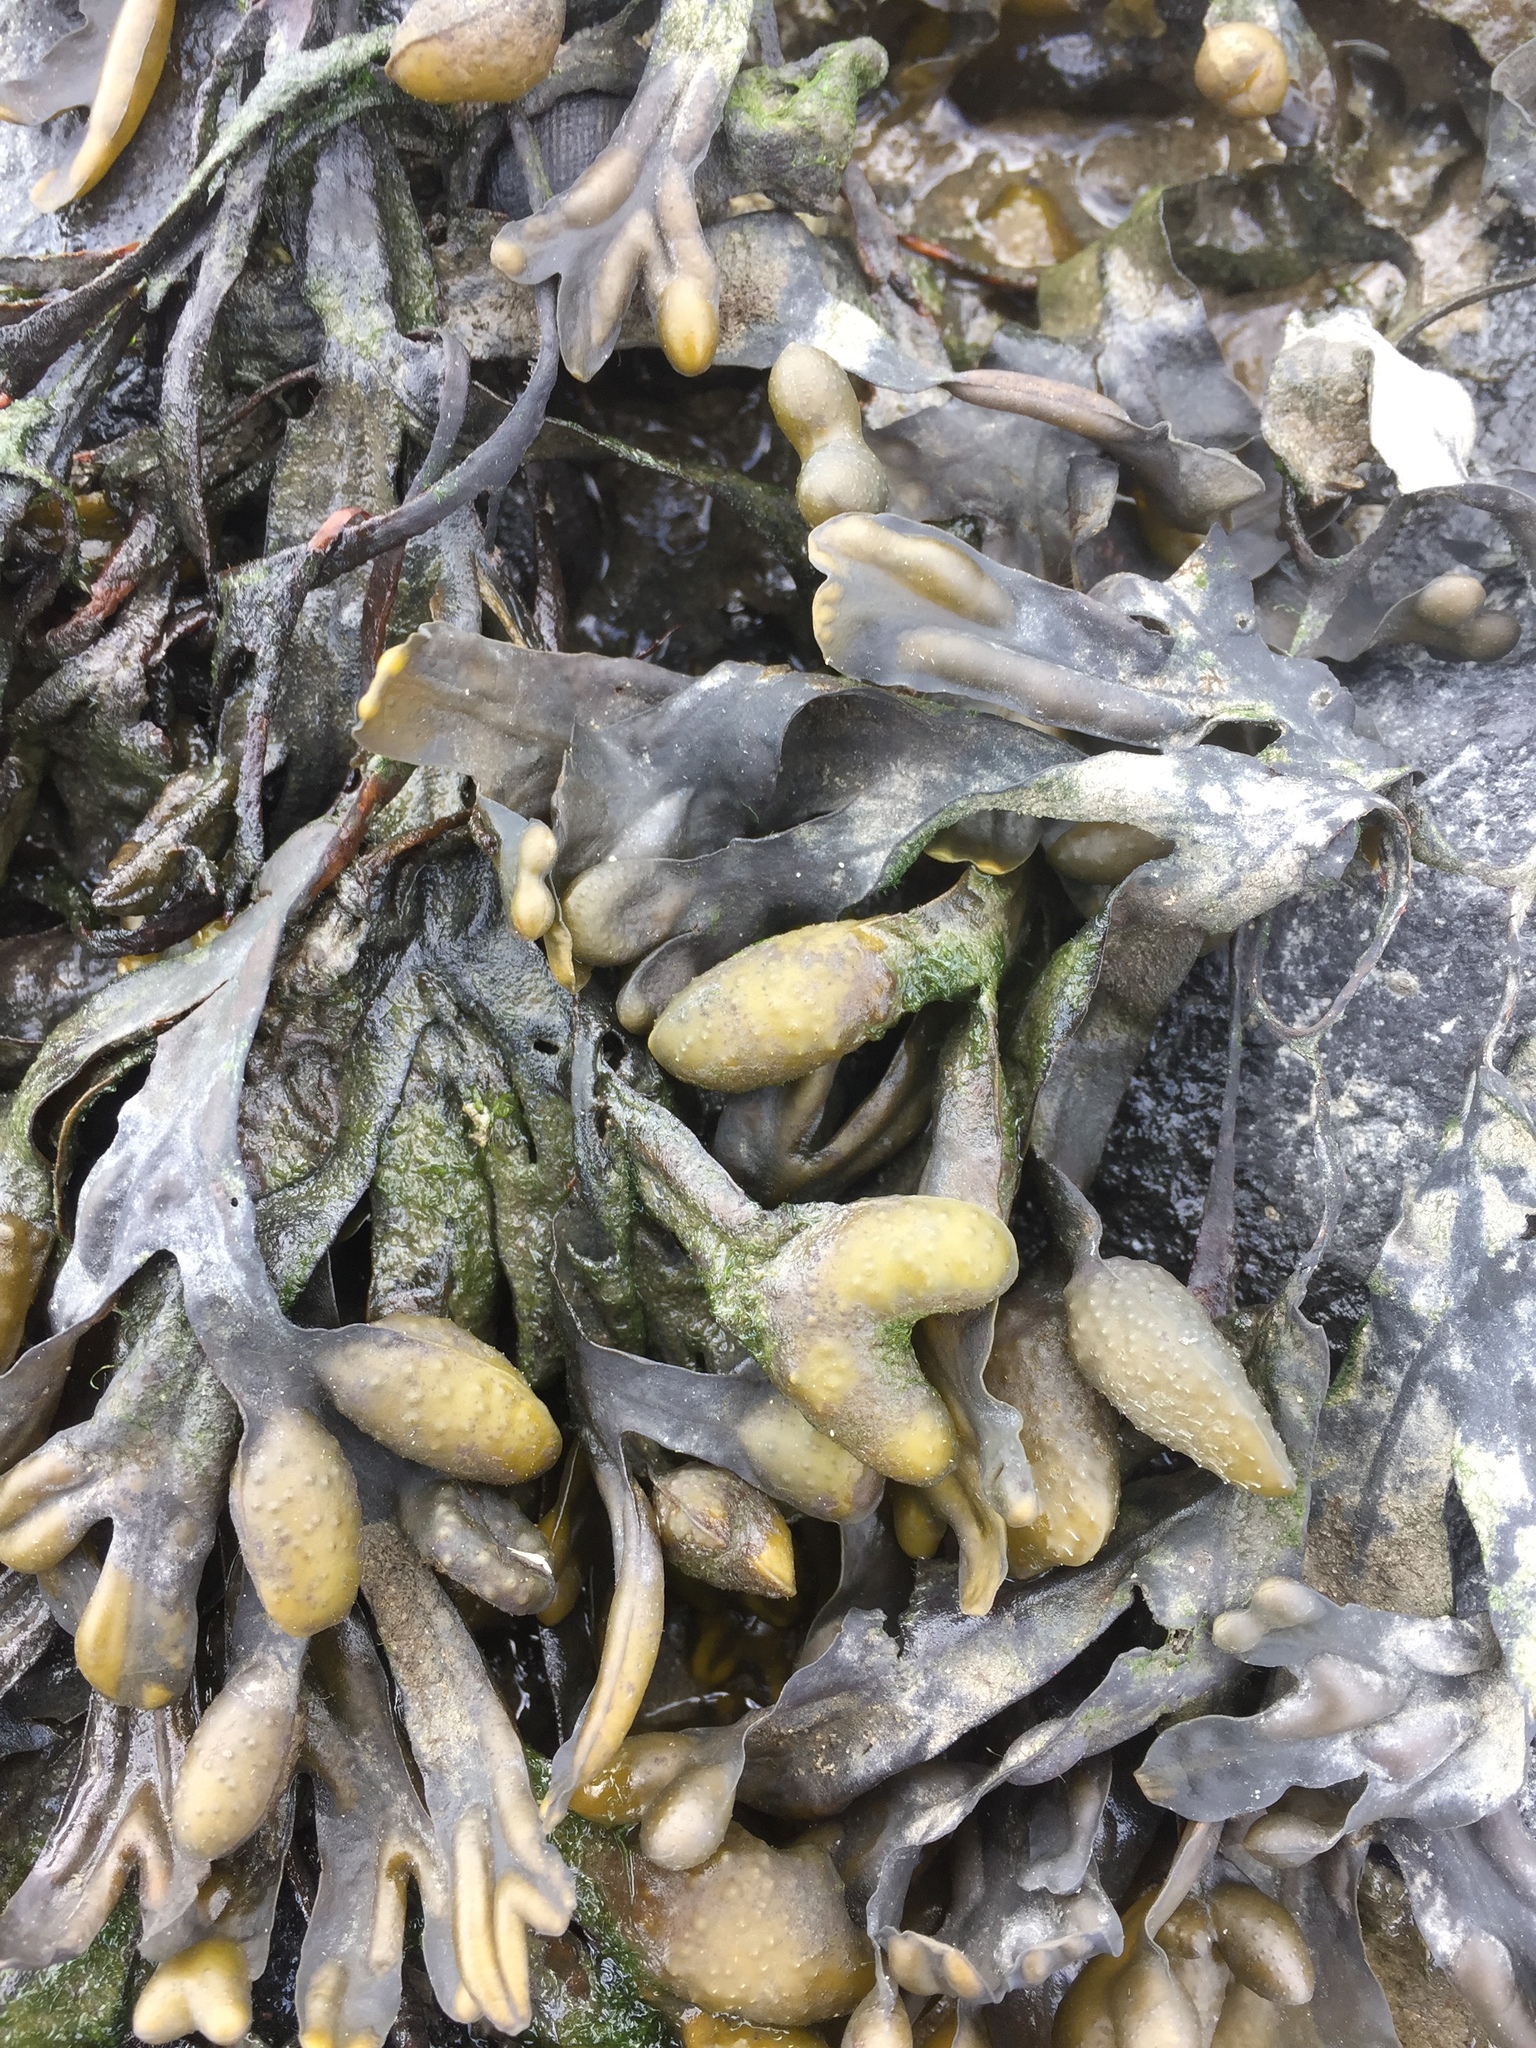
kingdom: Chromista
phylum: Ochrophyta
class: Phaeophyceae
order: Fucales
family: Fucaceae
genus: Fucus
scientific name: Fucus vesiculosus
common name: Bladder wrack
